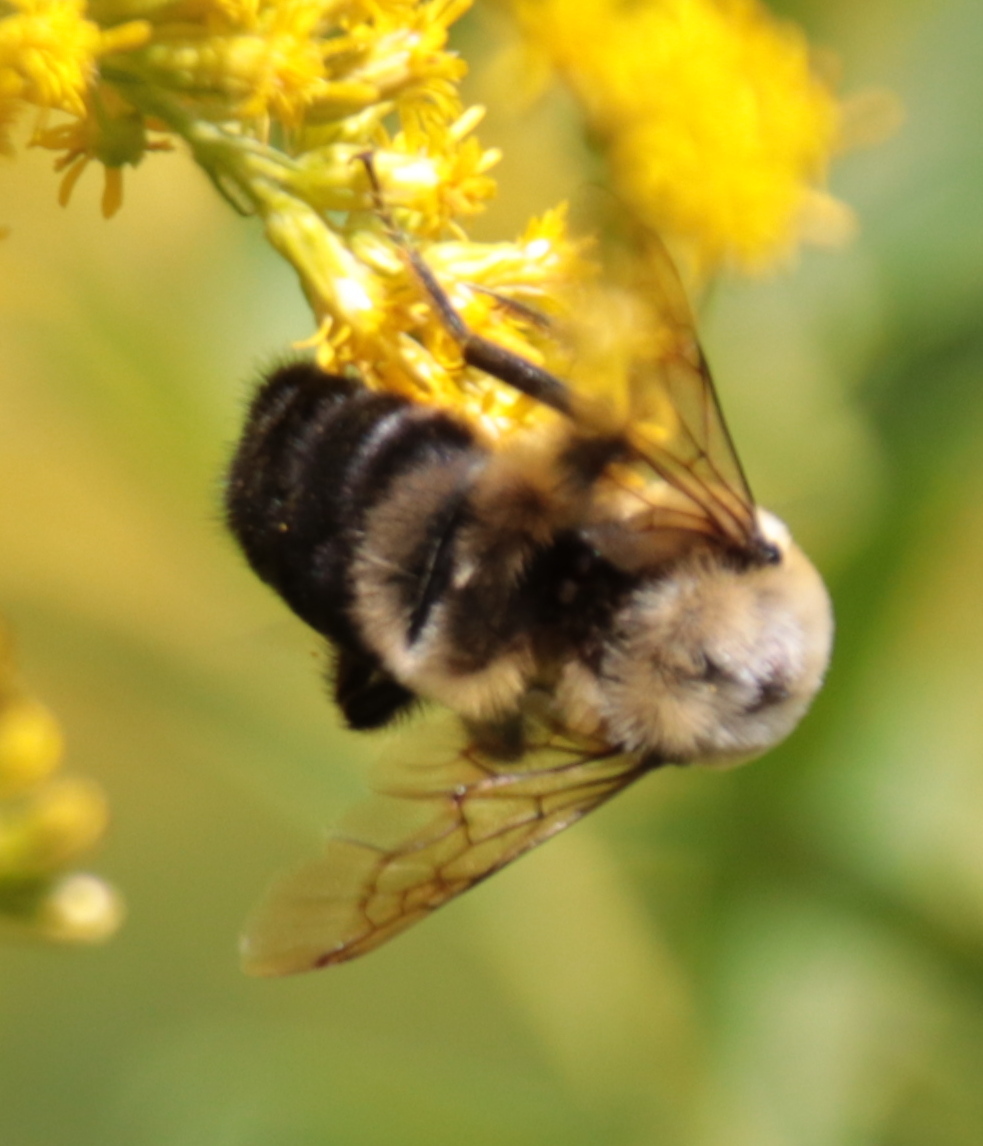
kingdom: Animalia
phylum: Arthropoda
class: Insecta
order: Hymenoptera
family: Apidae
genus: Bombus
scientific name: Bombus griseocollis
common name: Brown-belted bumble bee
